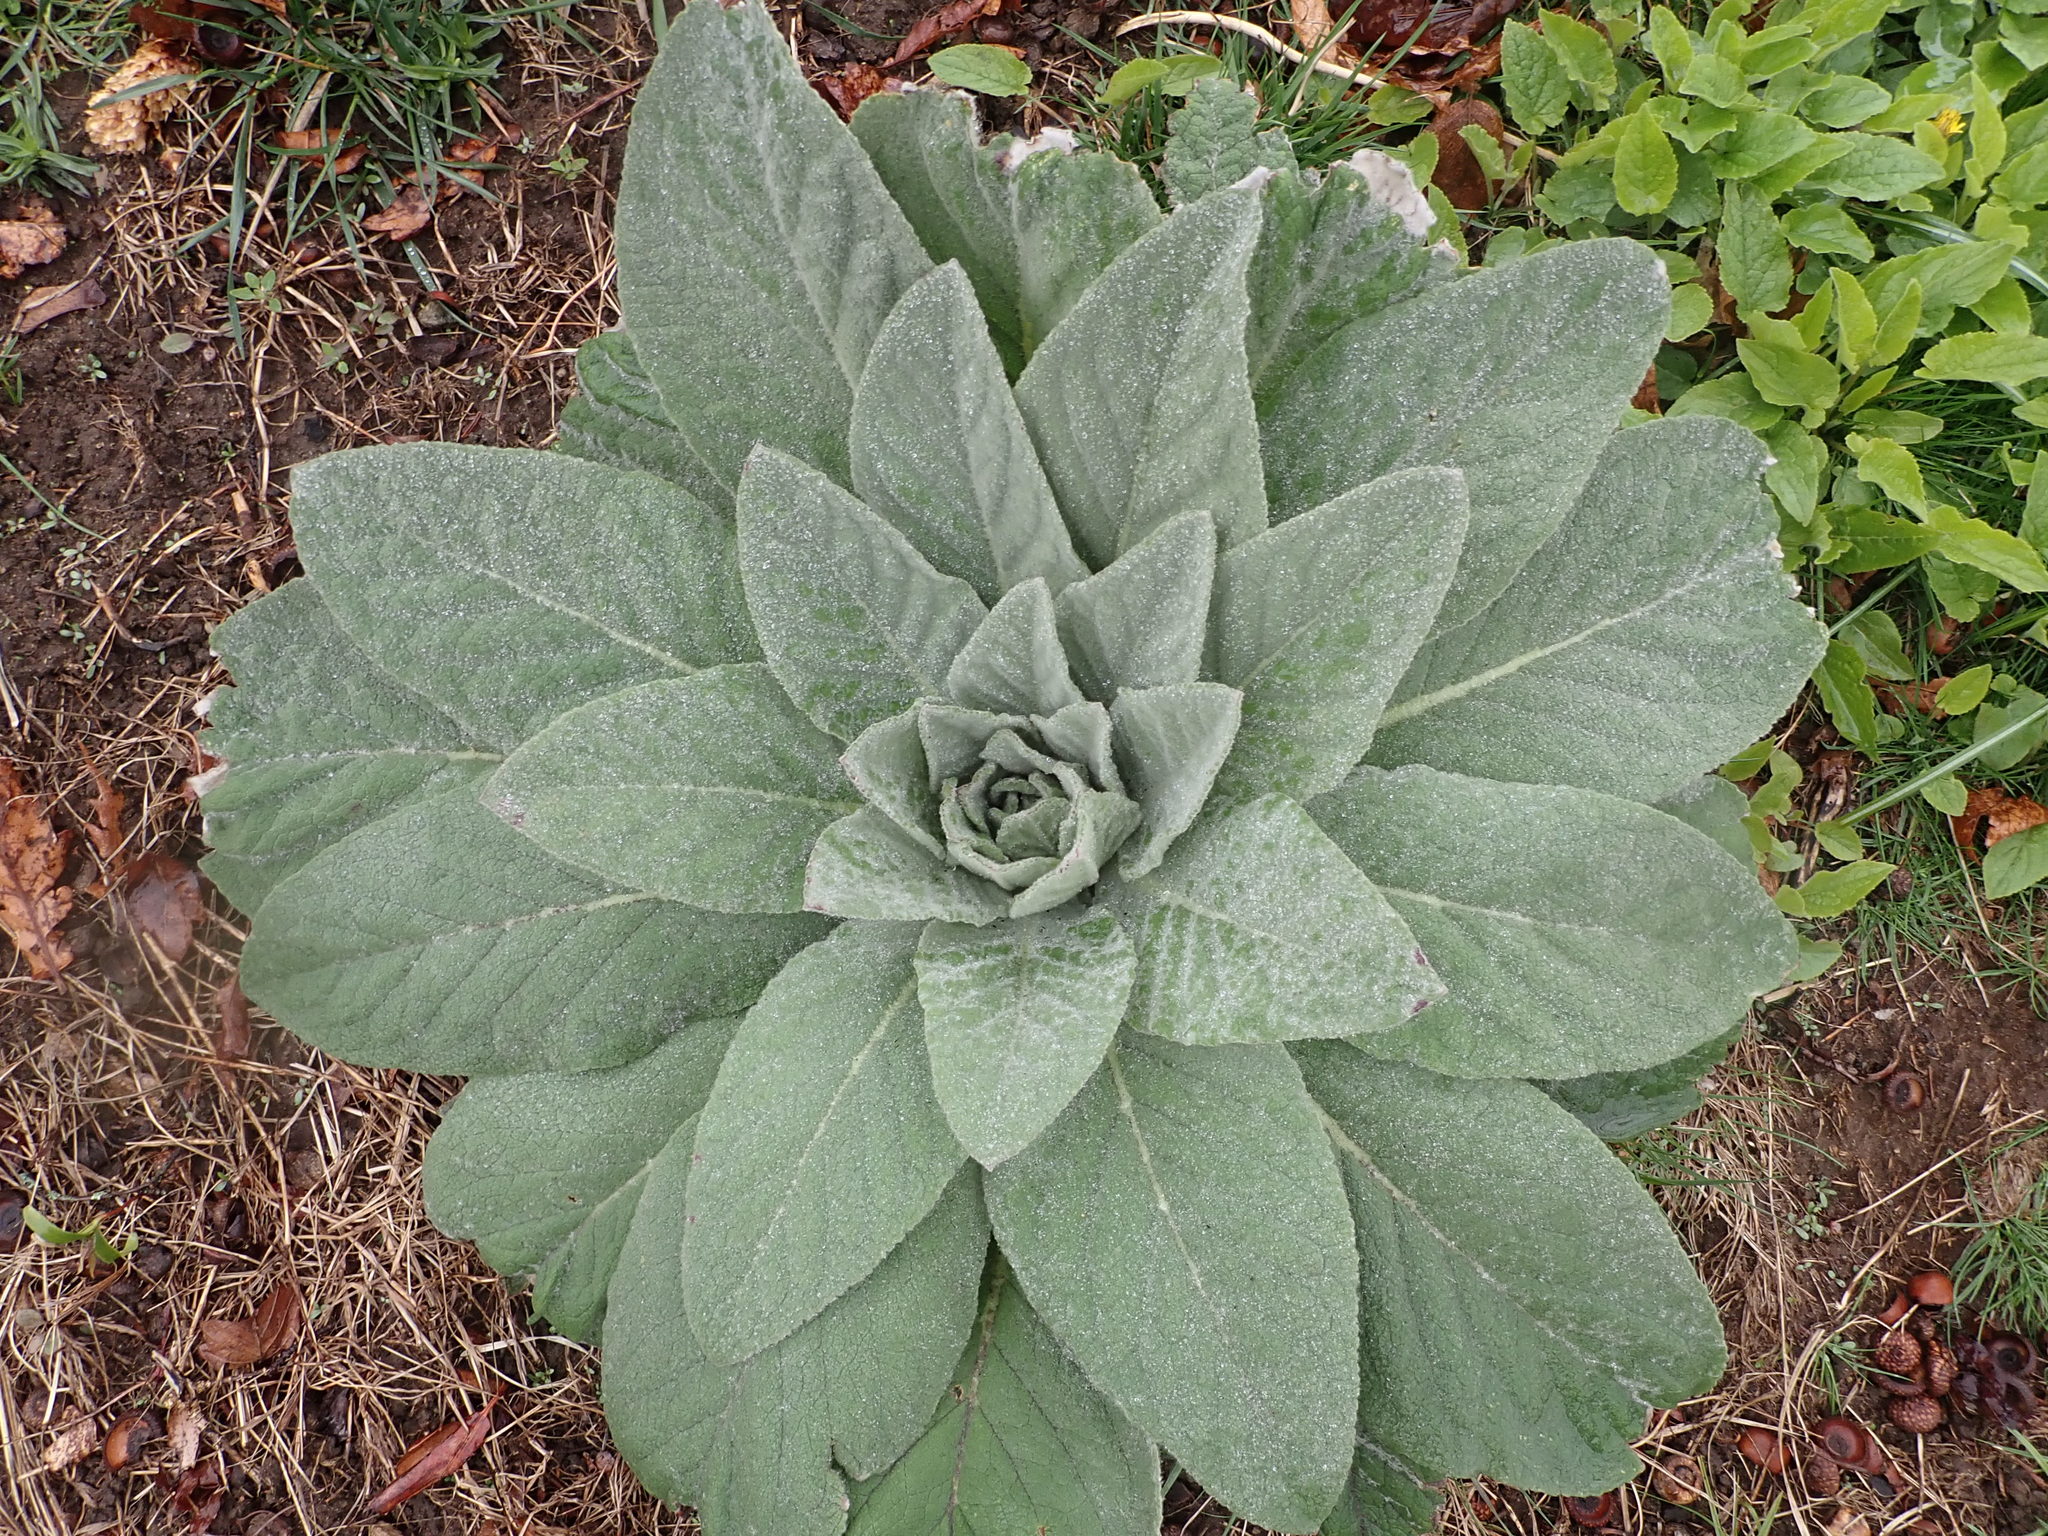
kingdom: Plantae
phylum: Tracheophyta
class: Magnoliopsida
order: Lamiales
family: Scrophulariaceae
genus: Verbascum
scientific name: Verbascum thapsus
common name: Common mullein
